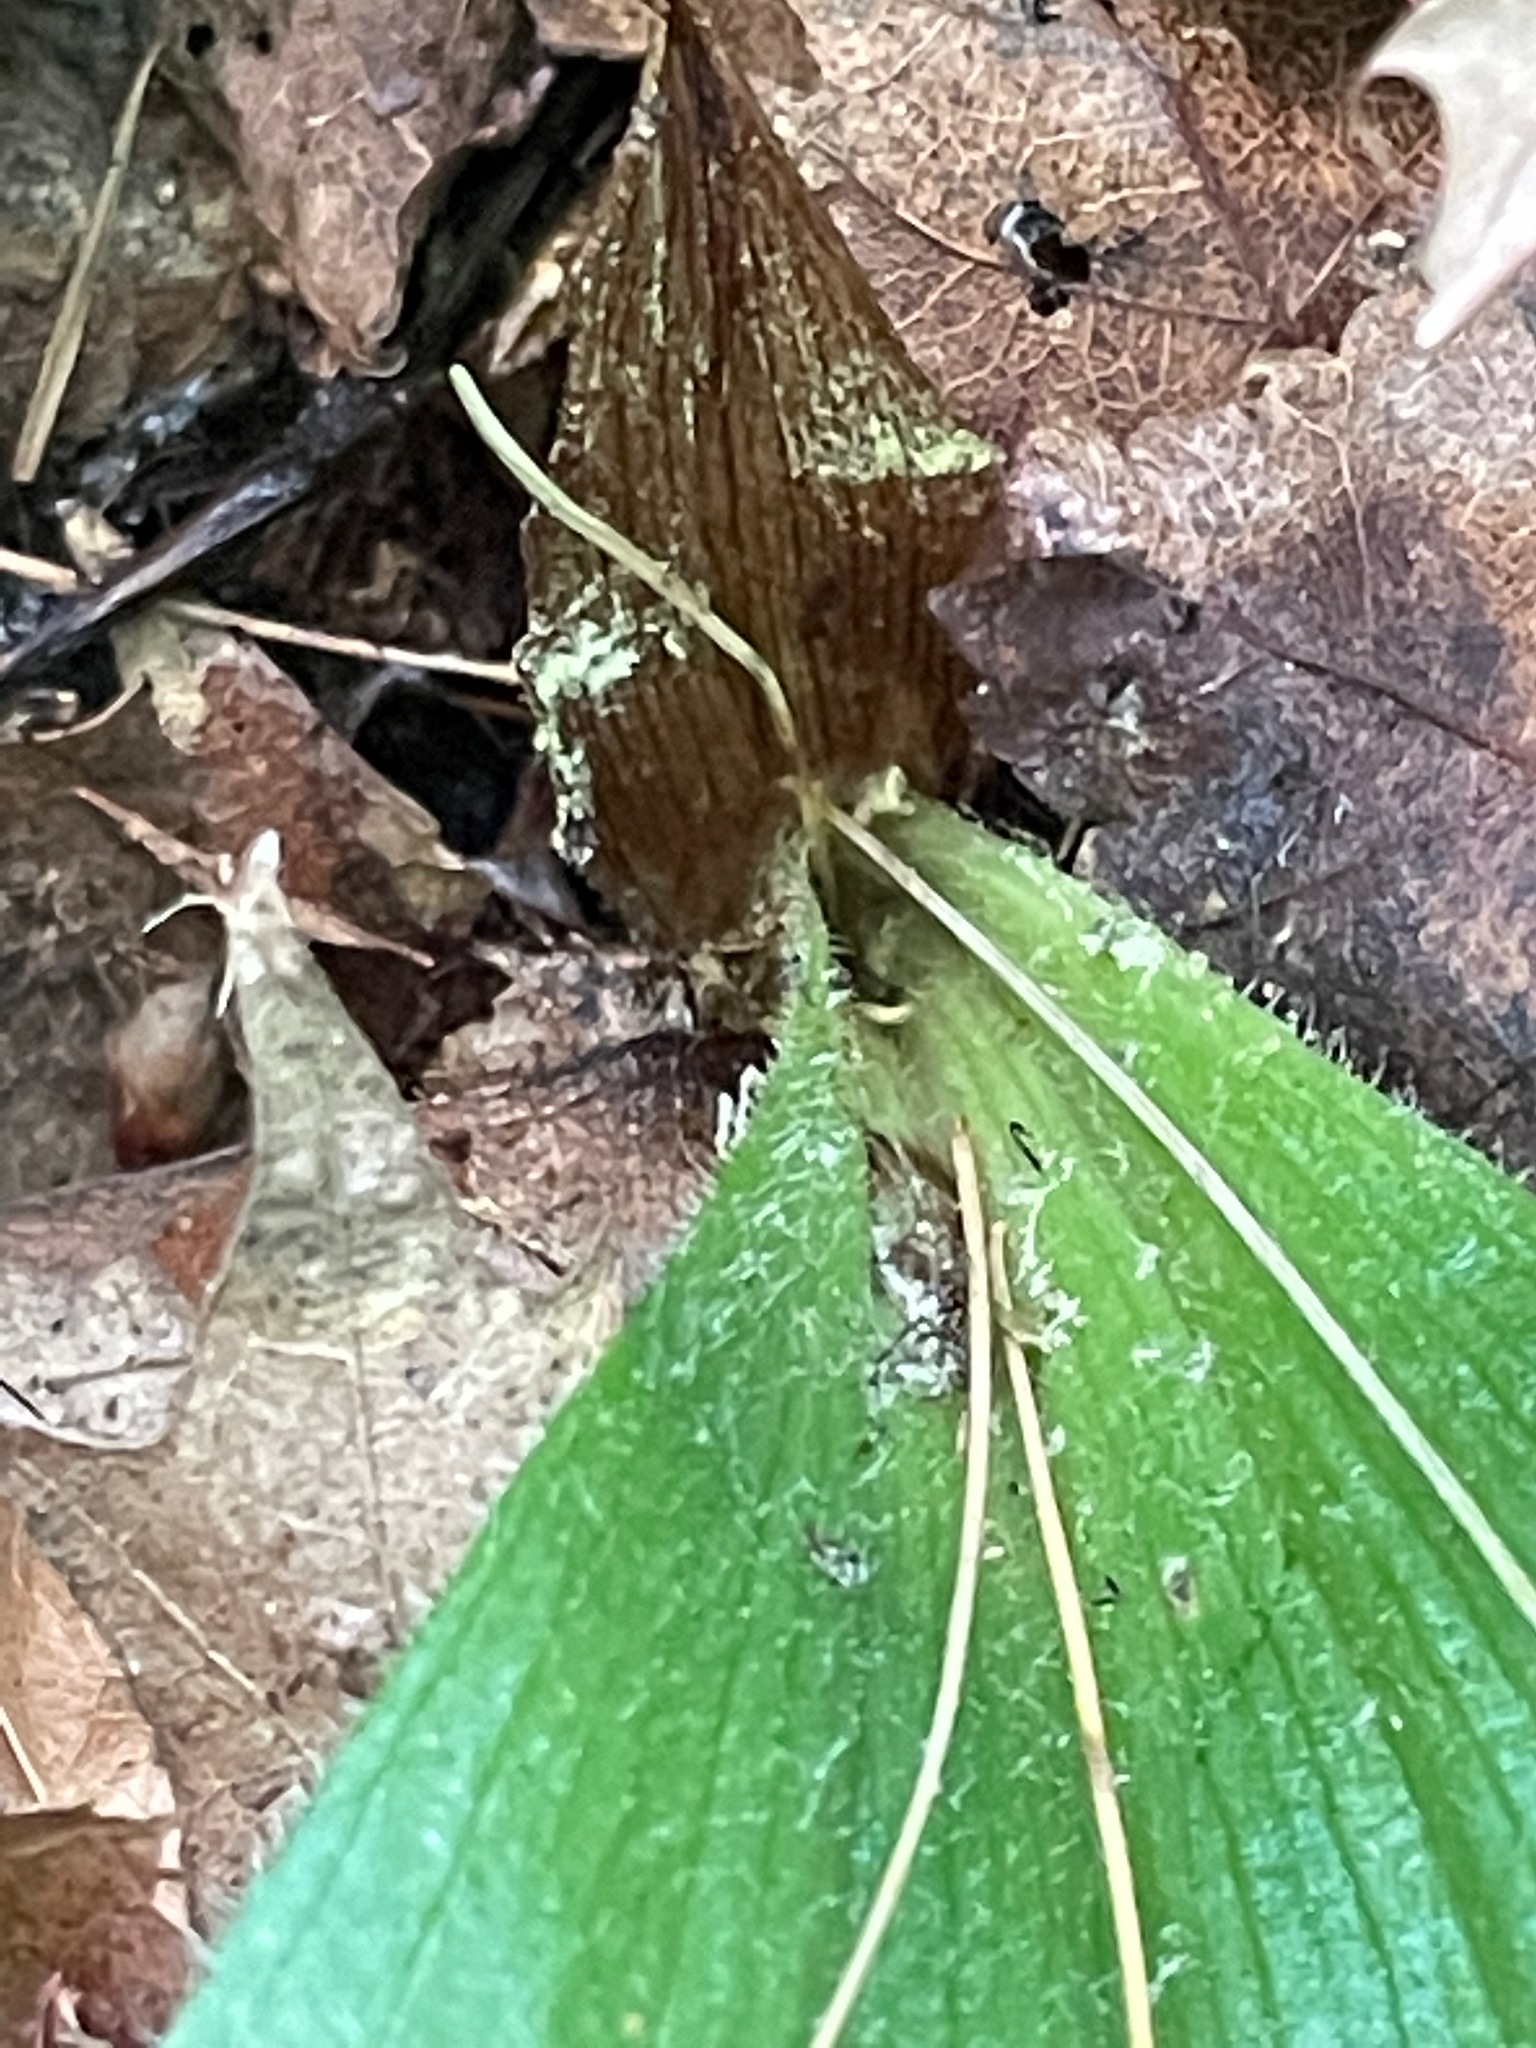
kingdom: Plantae
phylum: Tracheophyta
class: Liliopsida
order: Asparagales
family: Orchidaceae
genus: Cypripedium
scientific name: Cypripedium acaule
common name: Pink lady's-slipper
